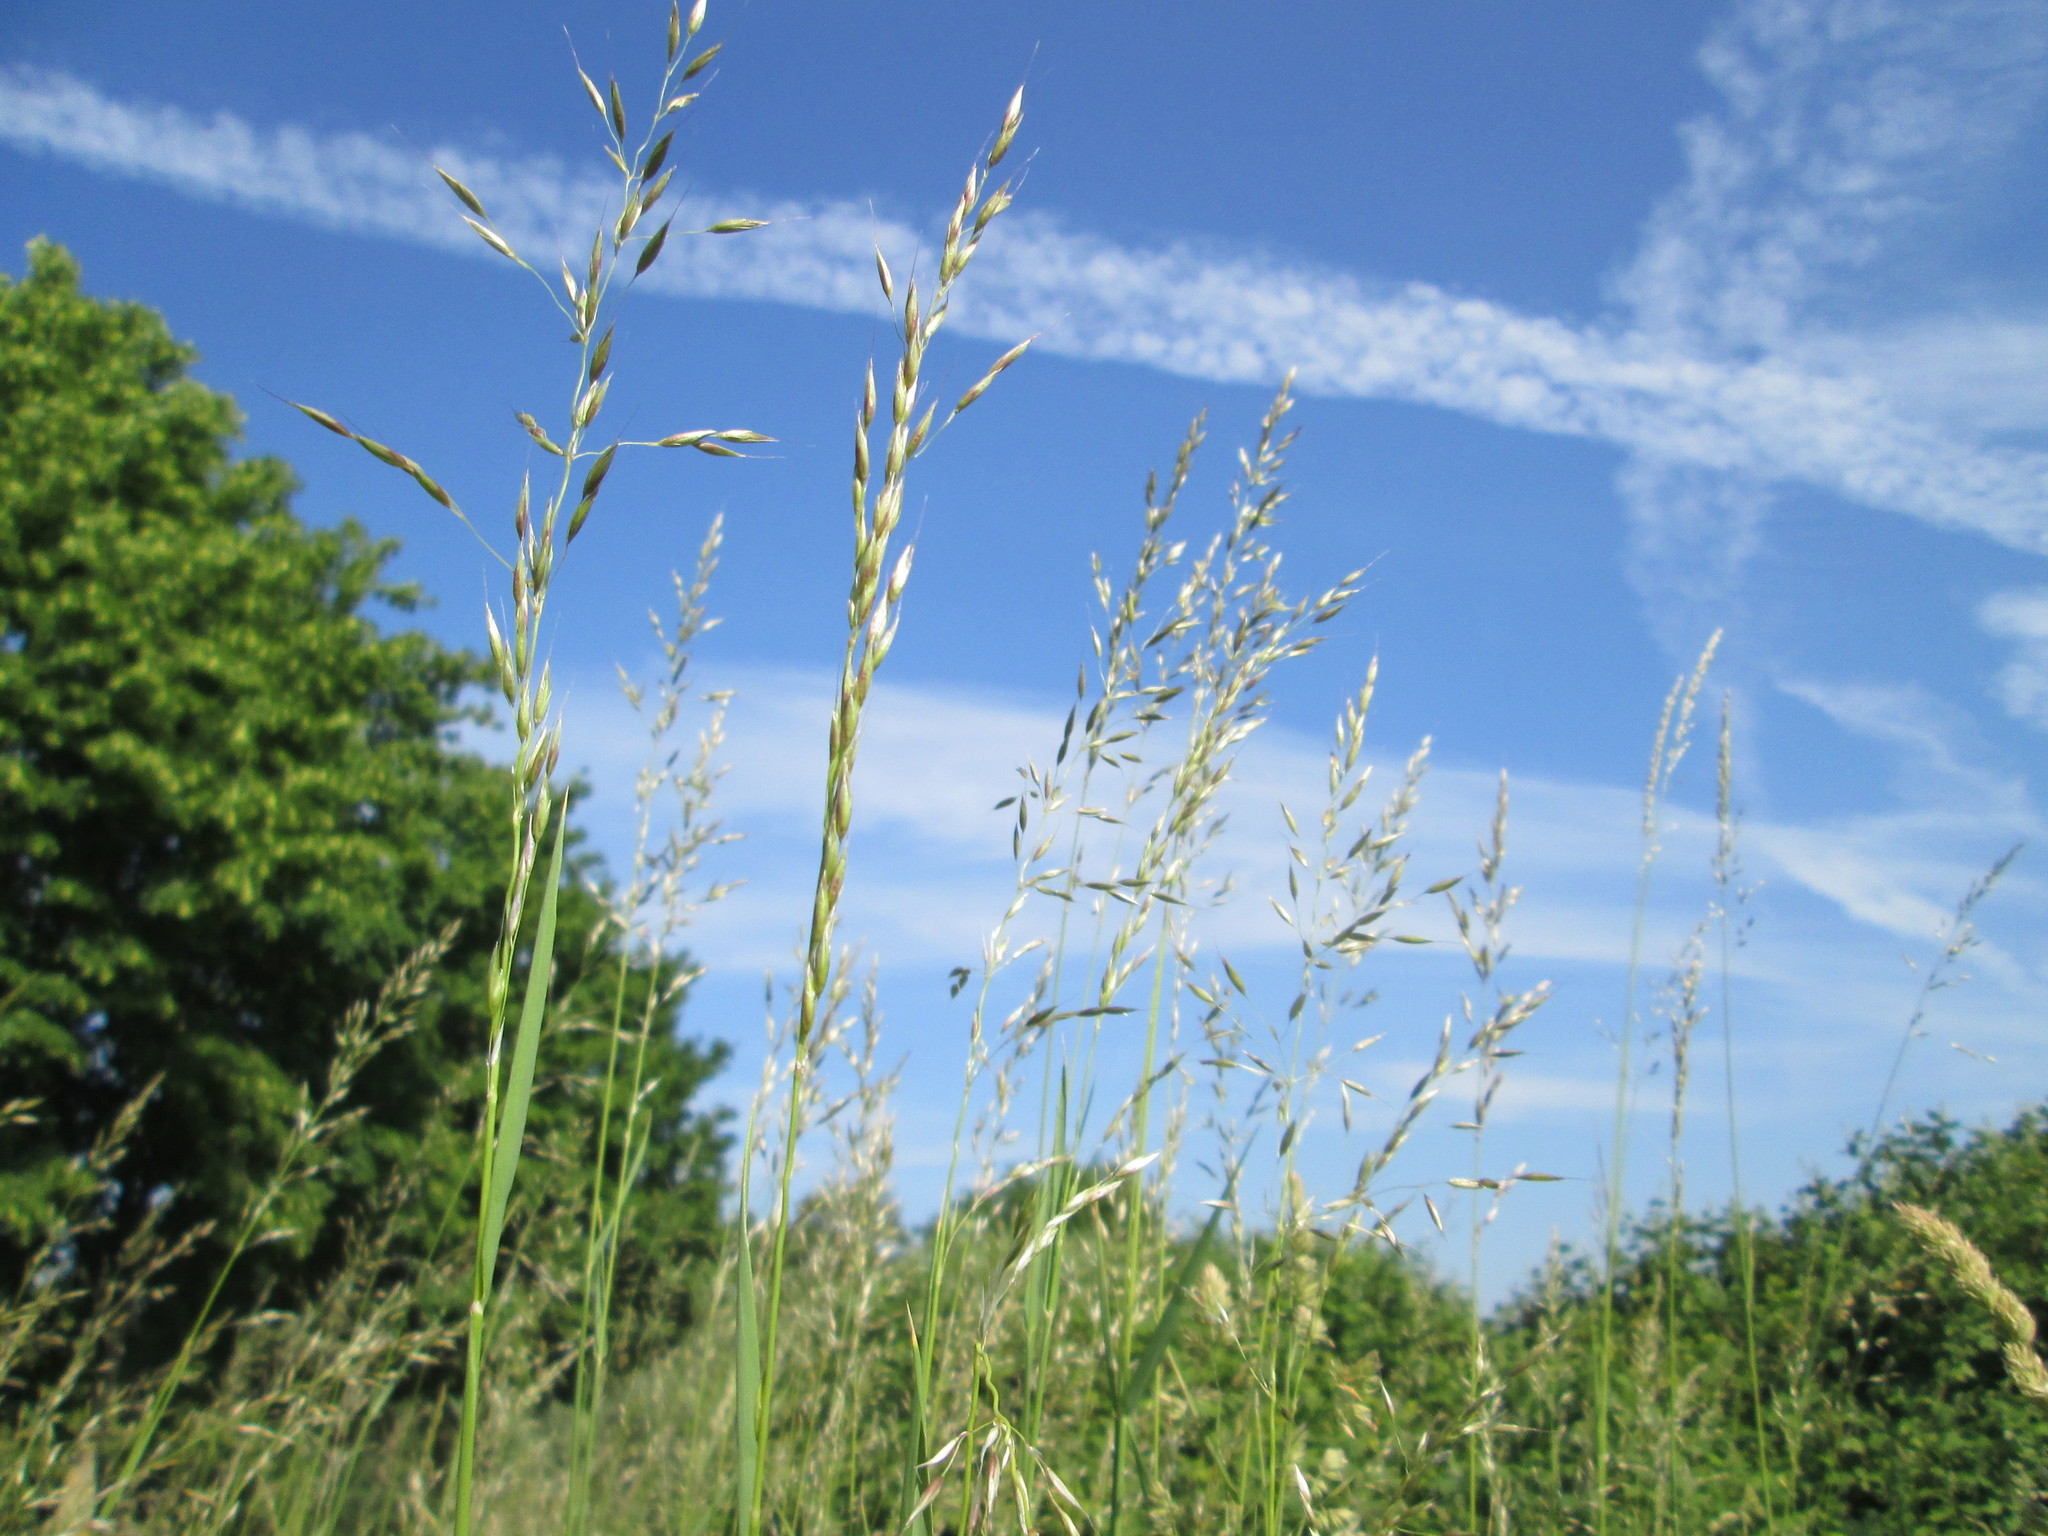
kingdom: Plantae
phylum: Tracheophyta
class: Liliopsida
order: Poales
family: Poaceae
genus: Arrhenatherum
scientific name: Arrhenatherum elatius
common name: Tall oatgrass
